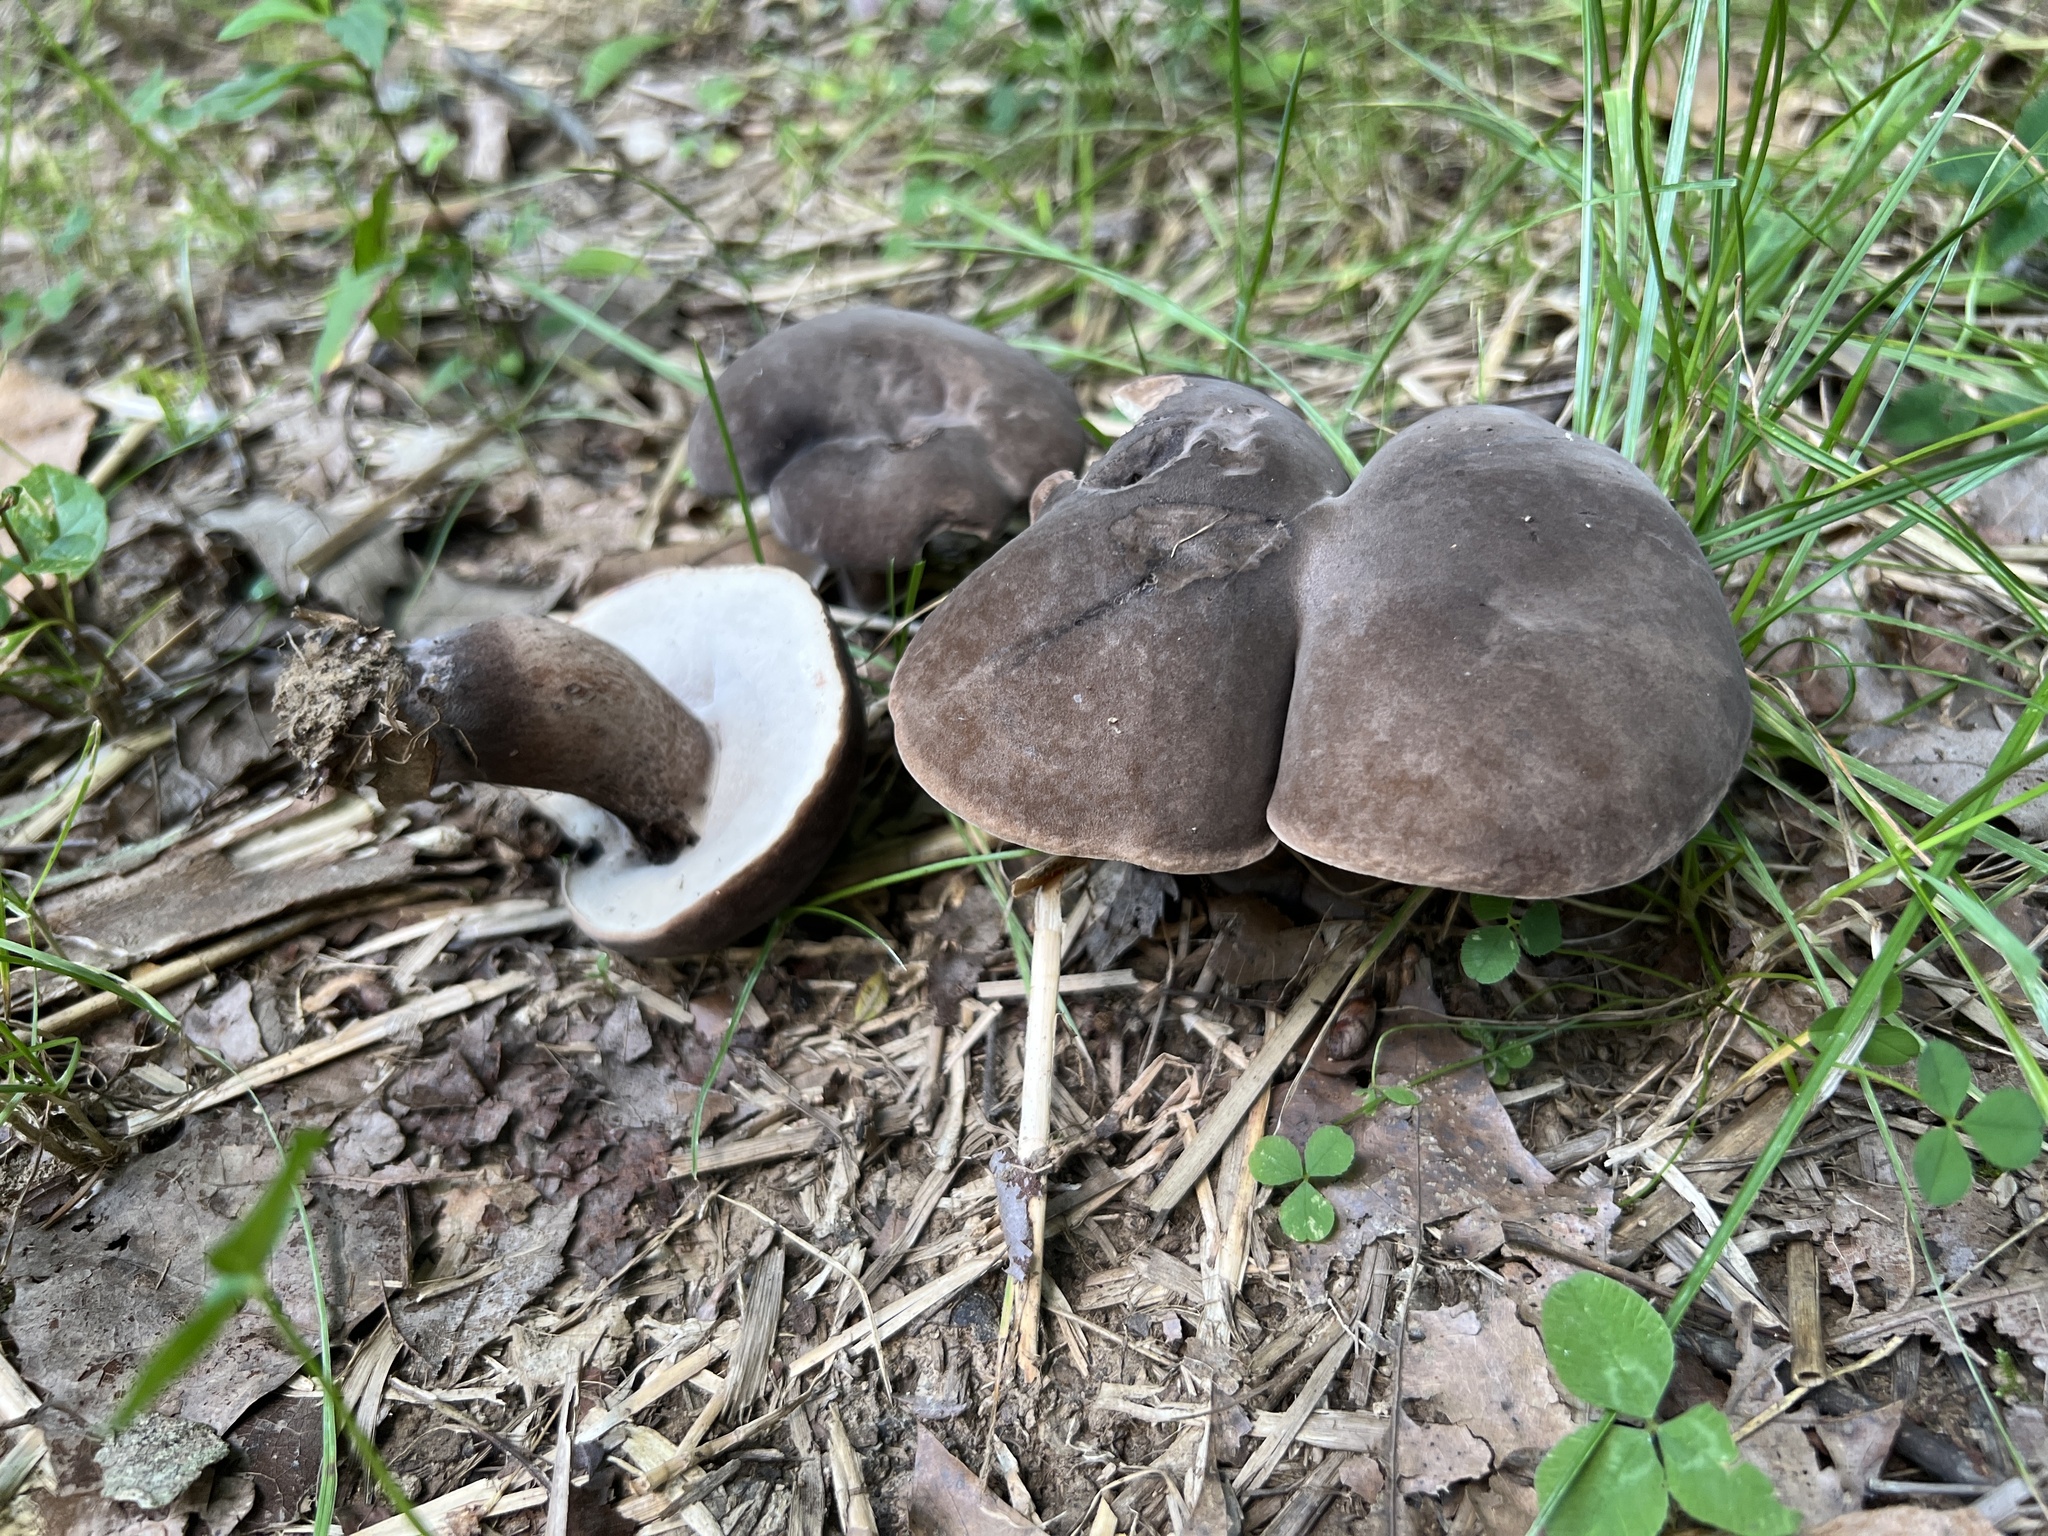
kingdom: Fungi
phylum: Basidiomycota
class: Agaricomycetes
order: Boletales
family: Boletaceae
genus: Tylopilus
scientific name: Tylopilus alboater
